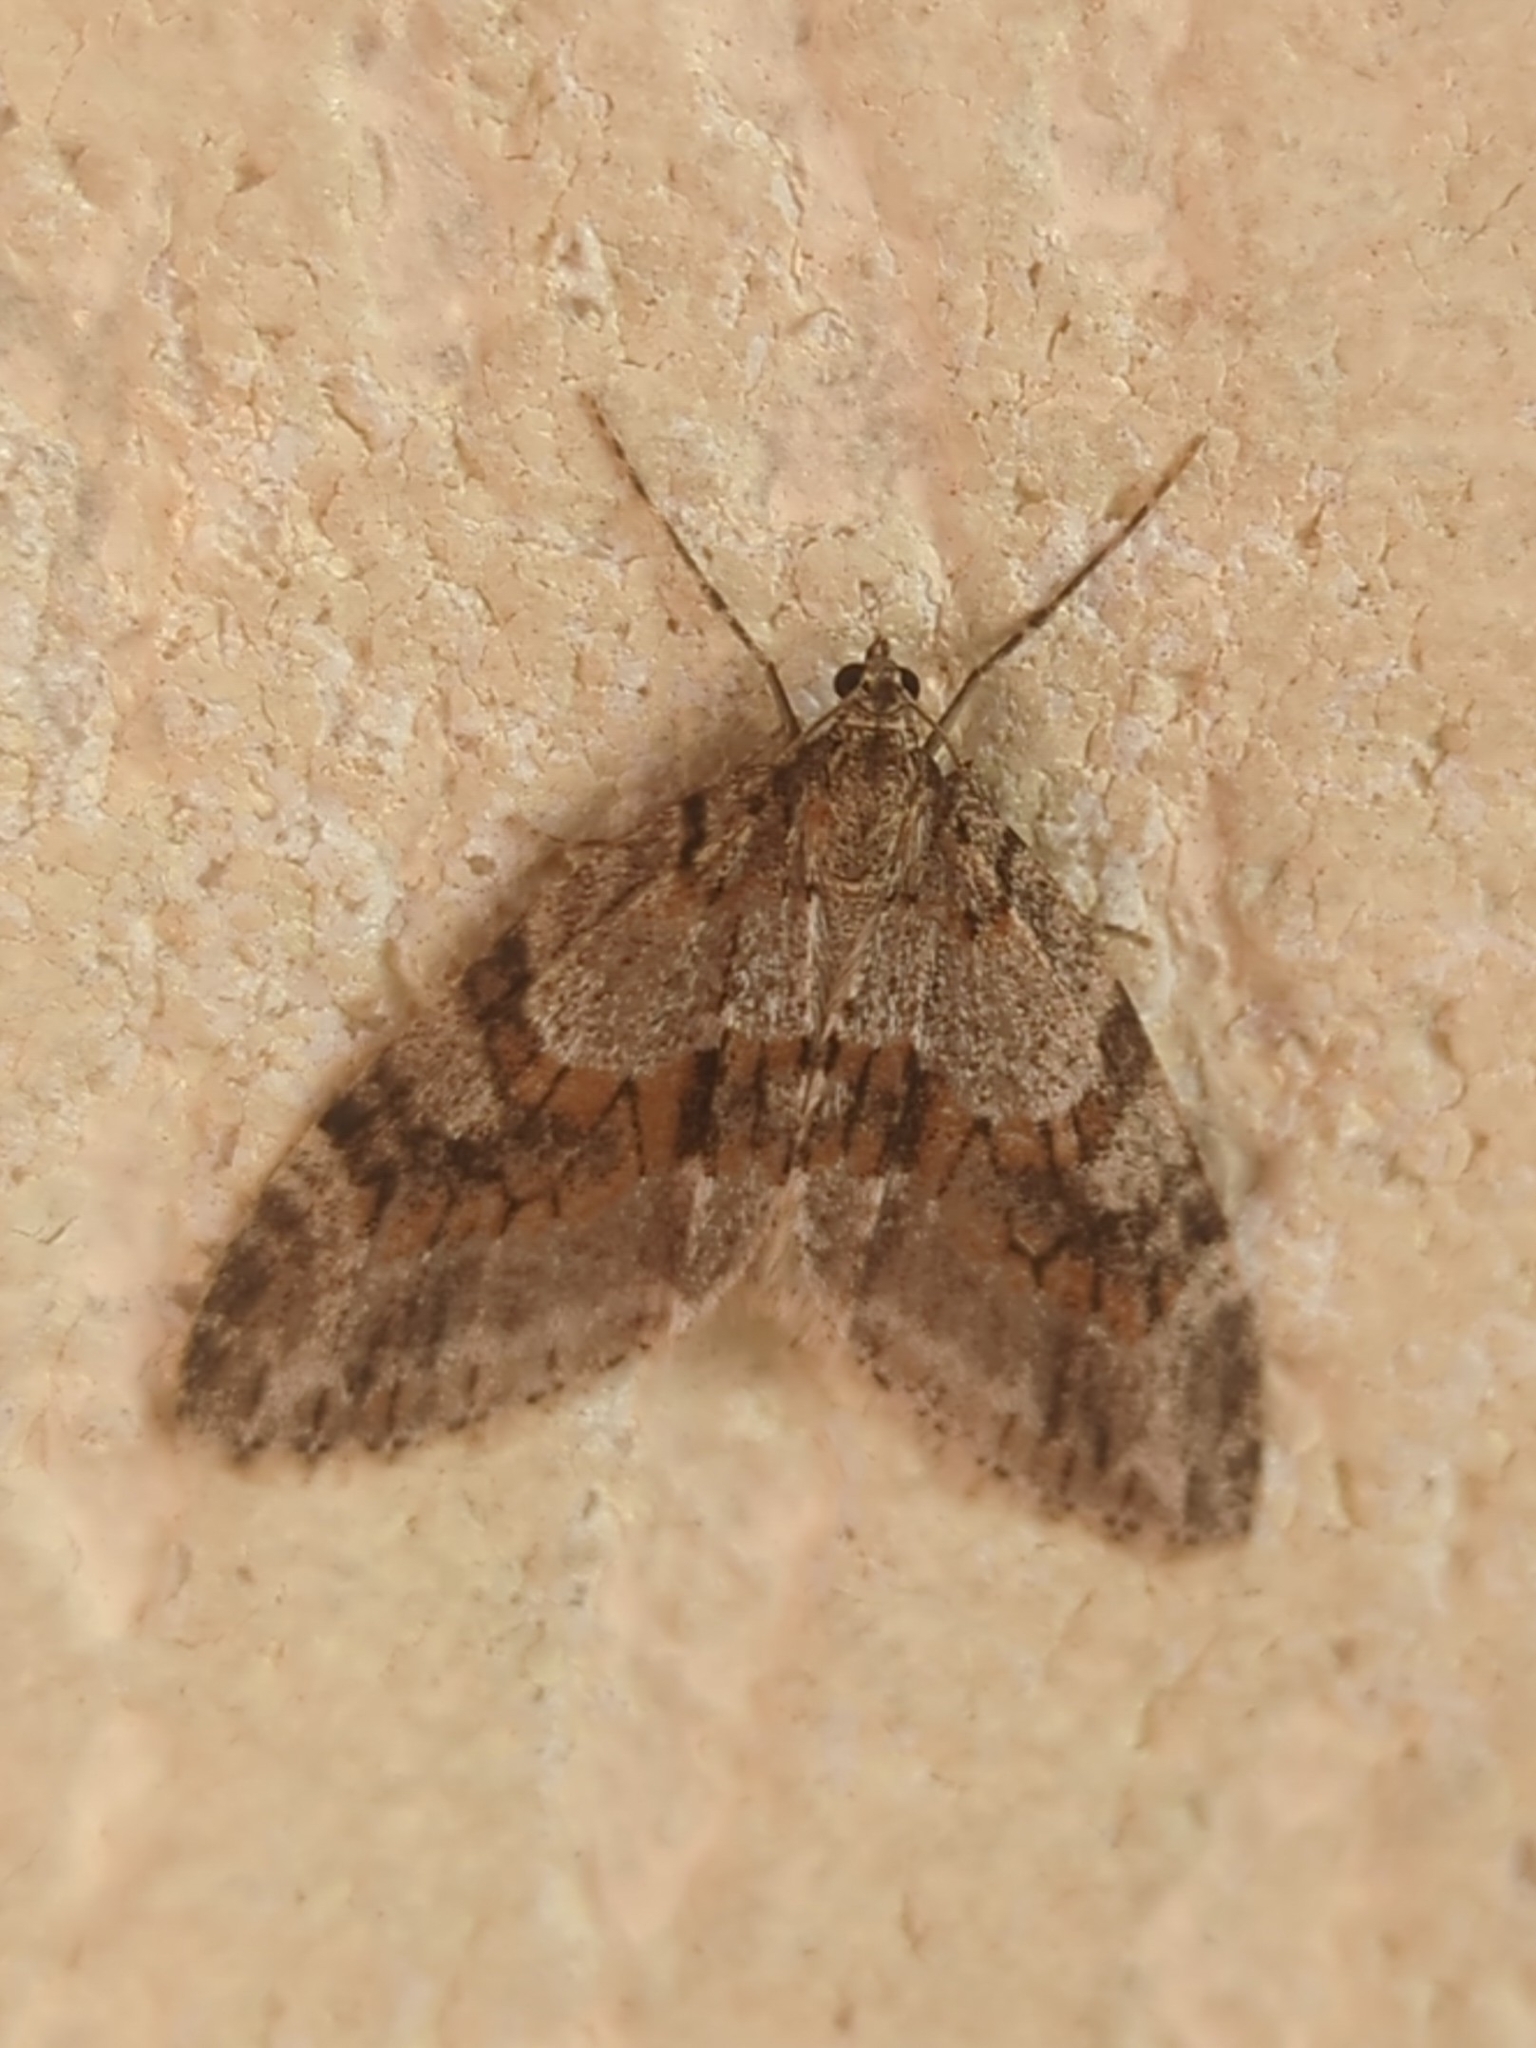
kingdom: Animalia
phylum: Arthropoda
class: Insecta
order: Lepidoptera
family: Geometridae
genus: Trichopteryx
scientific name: Trichopteryx polycommata
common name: Barred tooth-striped
